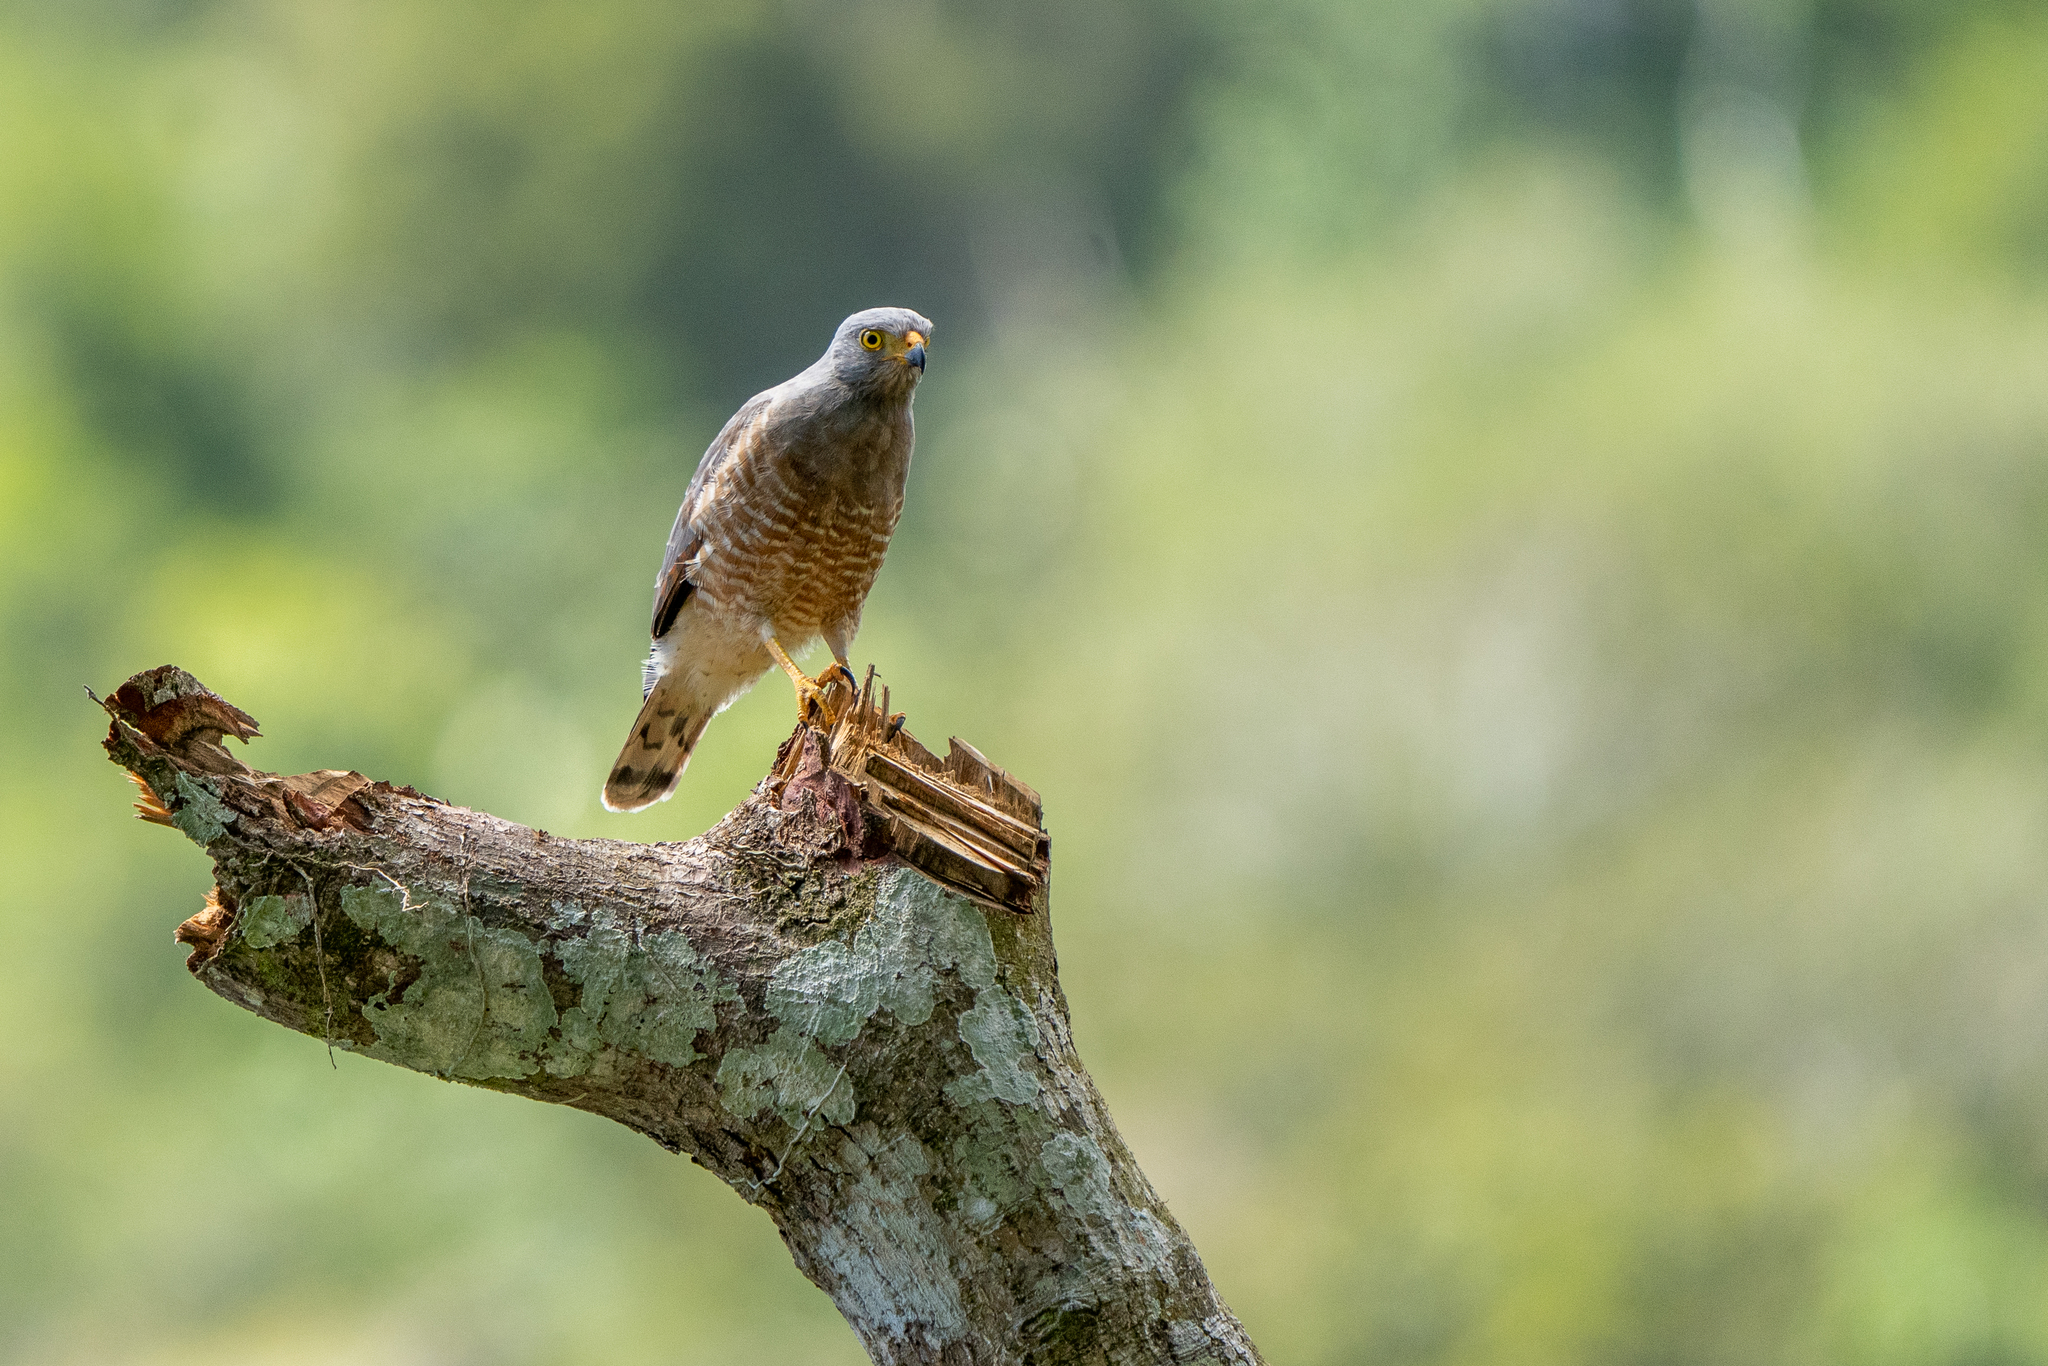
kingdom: Animalia
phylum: Chordata
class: Aves
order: Accipitriformes
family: Accipitridae
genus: Rupornis
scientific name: Rupornis magnirostris
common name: Roadside hawk
